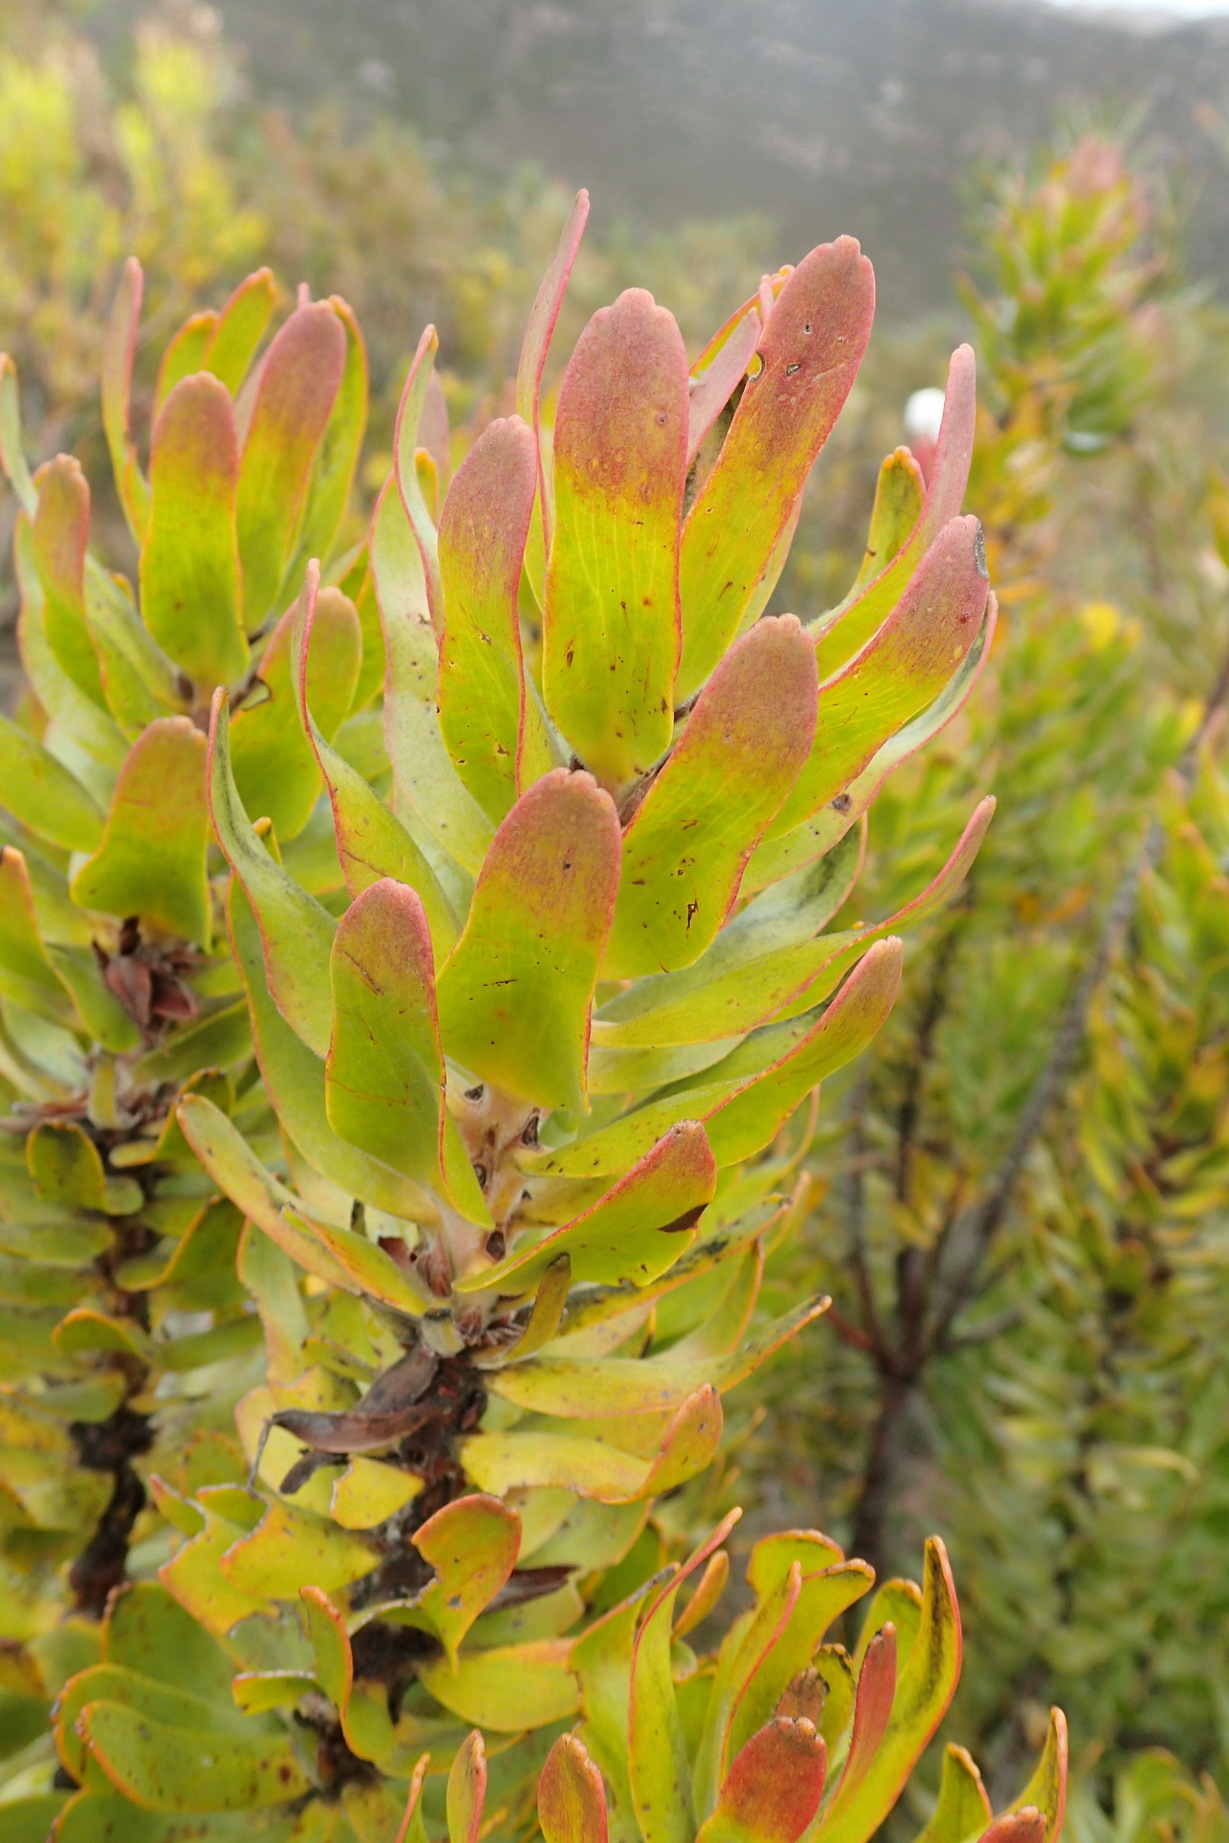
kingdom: Plantae
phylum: Tracheophyta
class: Magnoliopsida
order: Proteales
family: Proteaceae
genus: Mimetes
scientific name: Mimetes cucullatus
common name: Common pagoda
